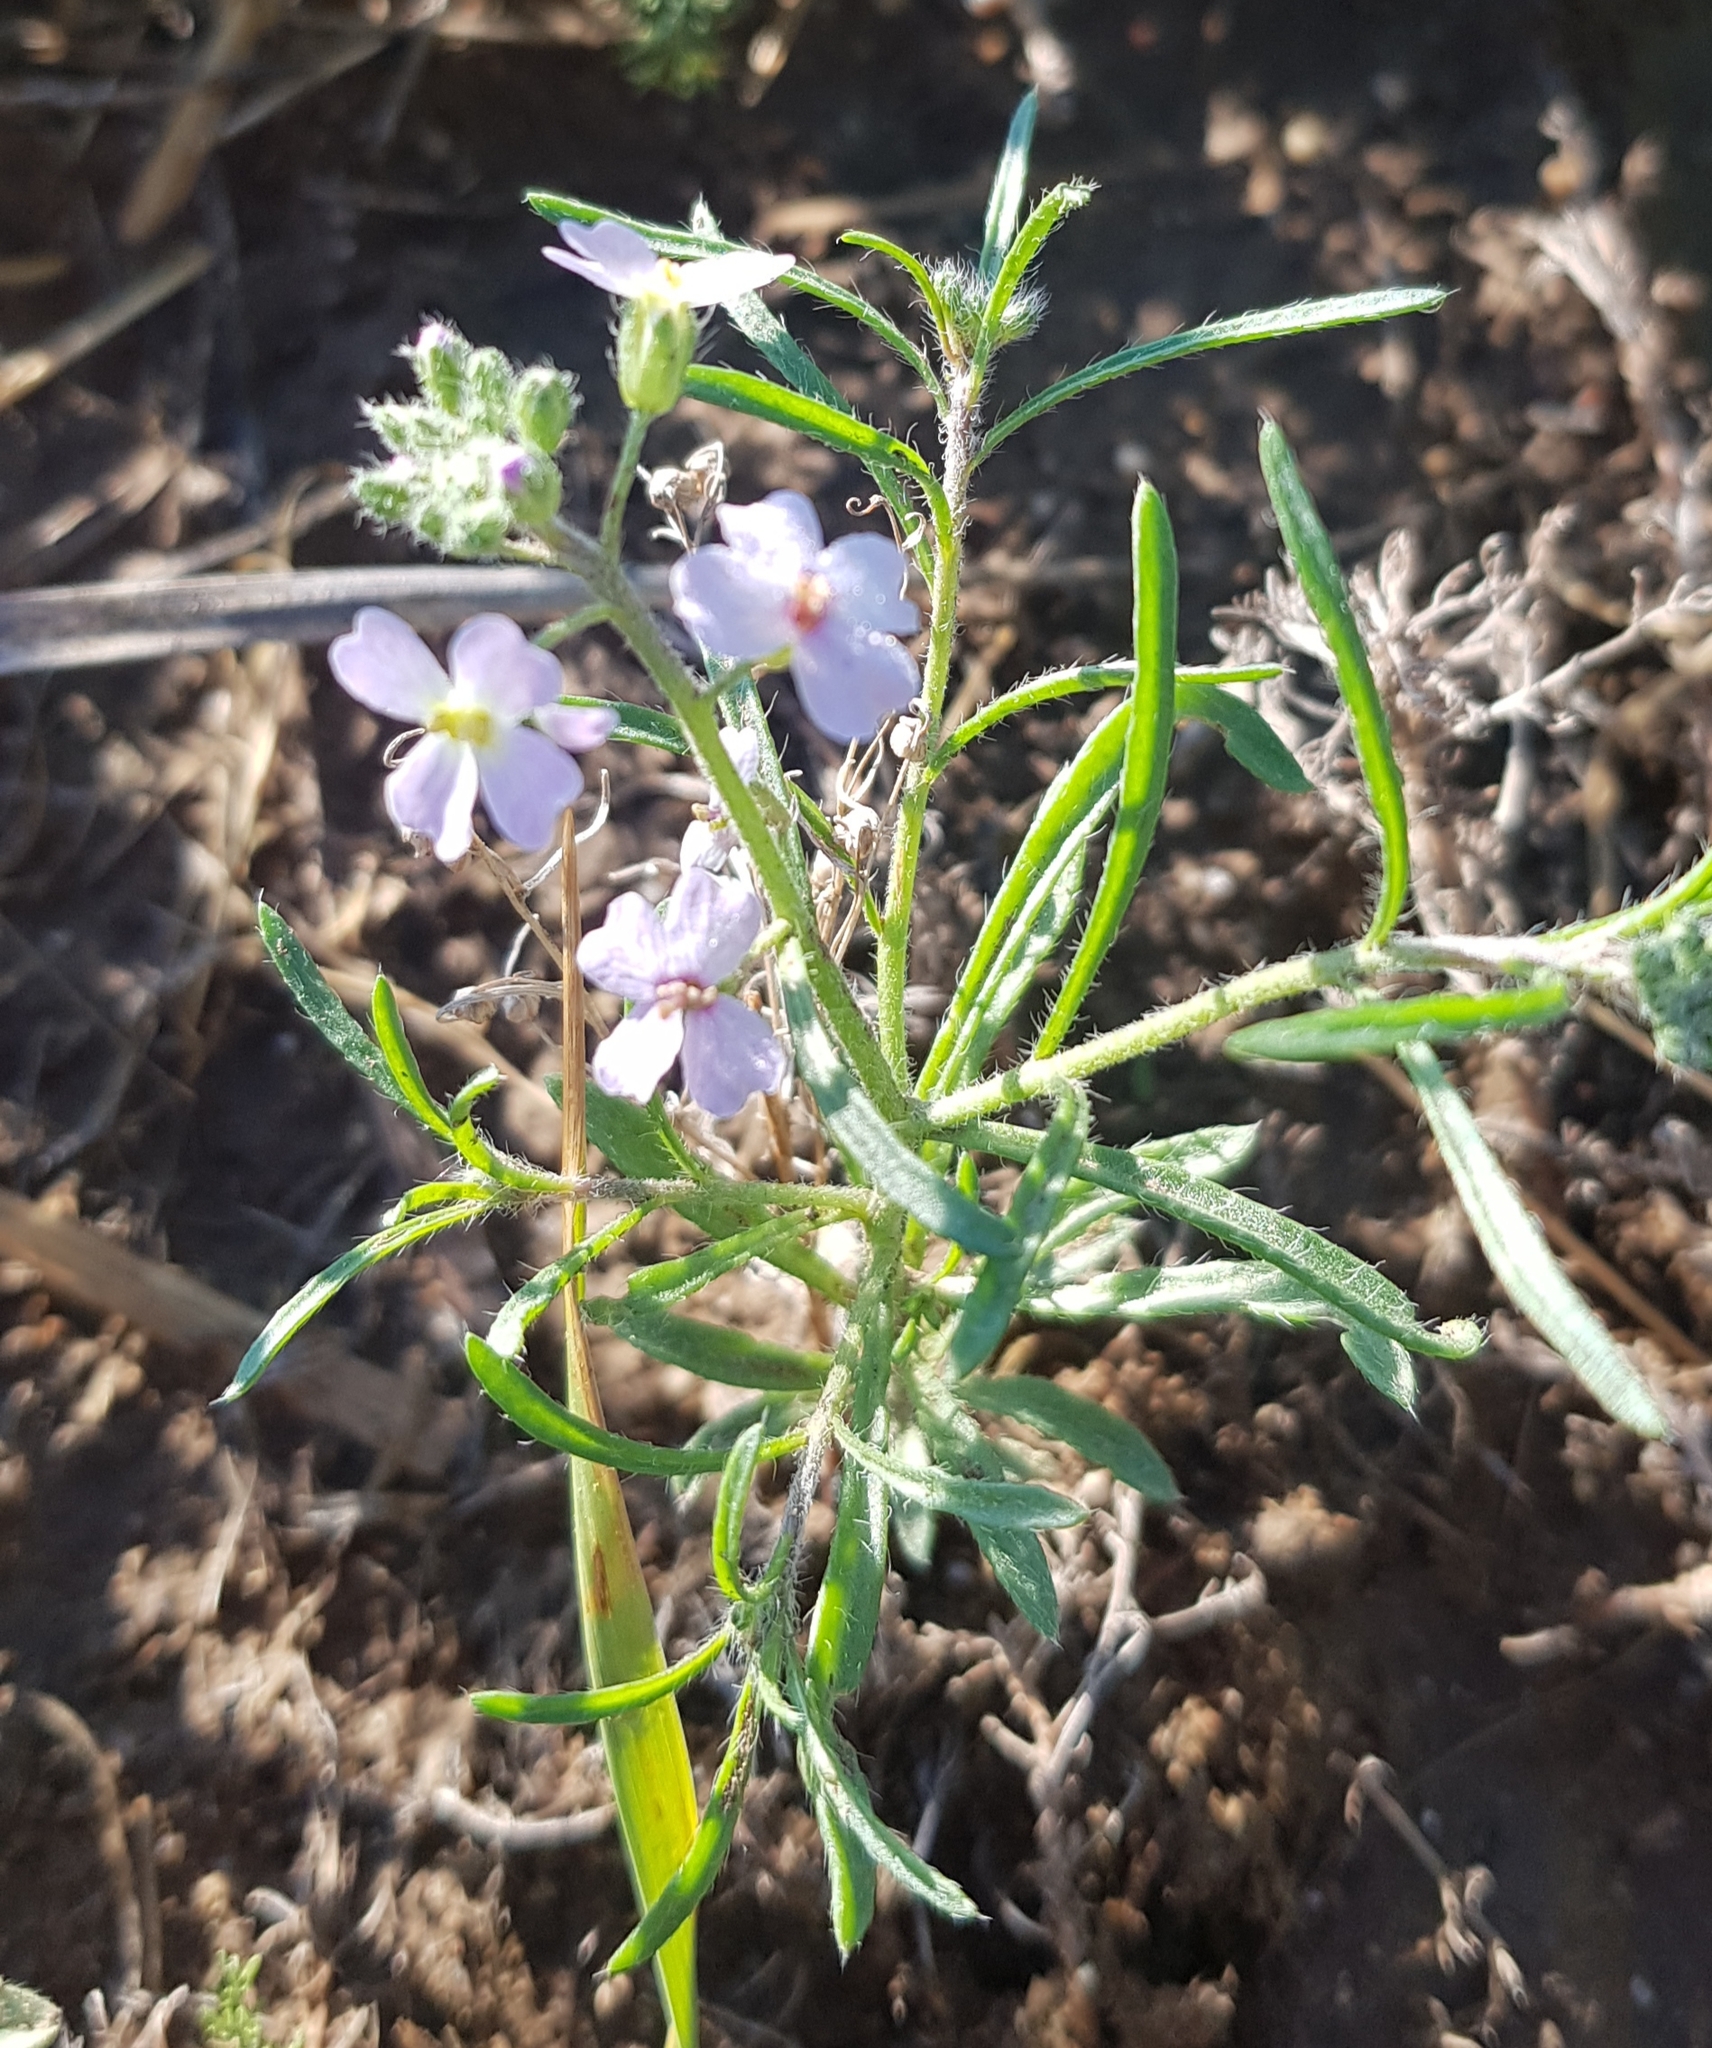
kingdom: Plantae
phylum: Tracheophyta
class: Magnoliopsida
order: Brassicales
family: Brassicaceae
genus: Dontostemon
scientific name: Dontostemon integrifolius
